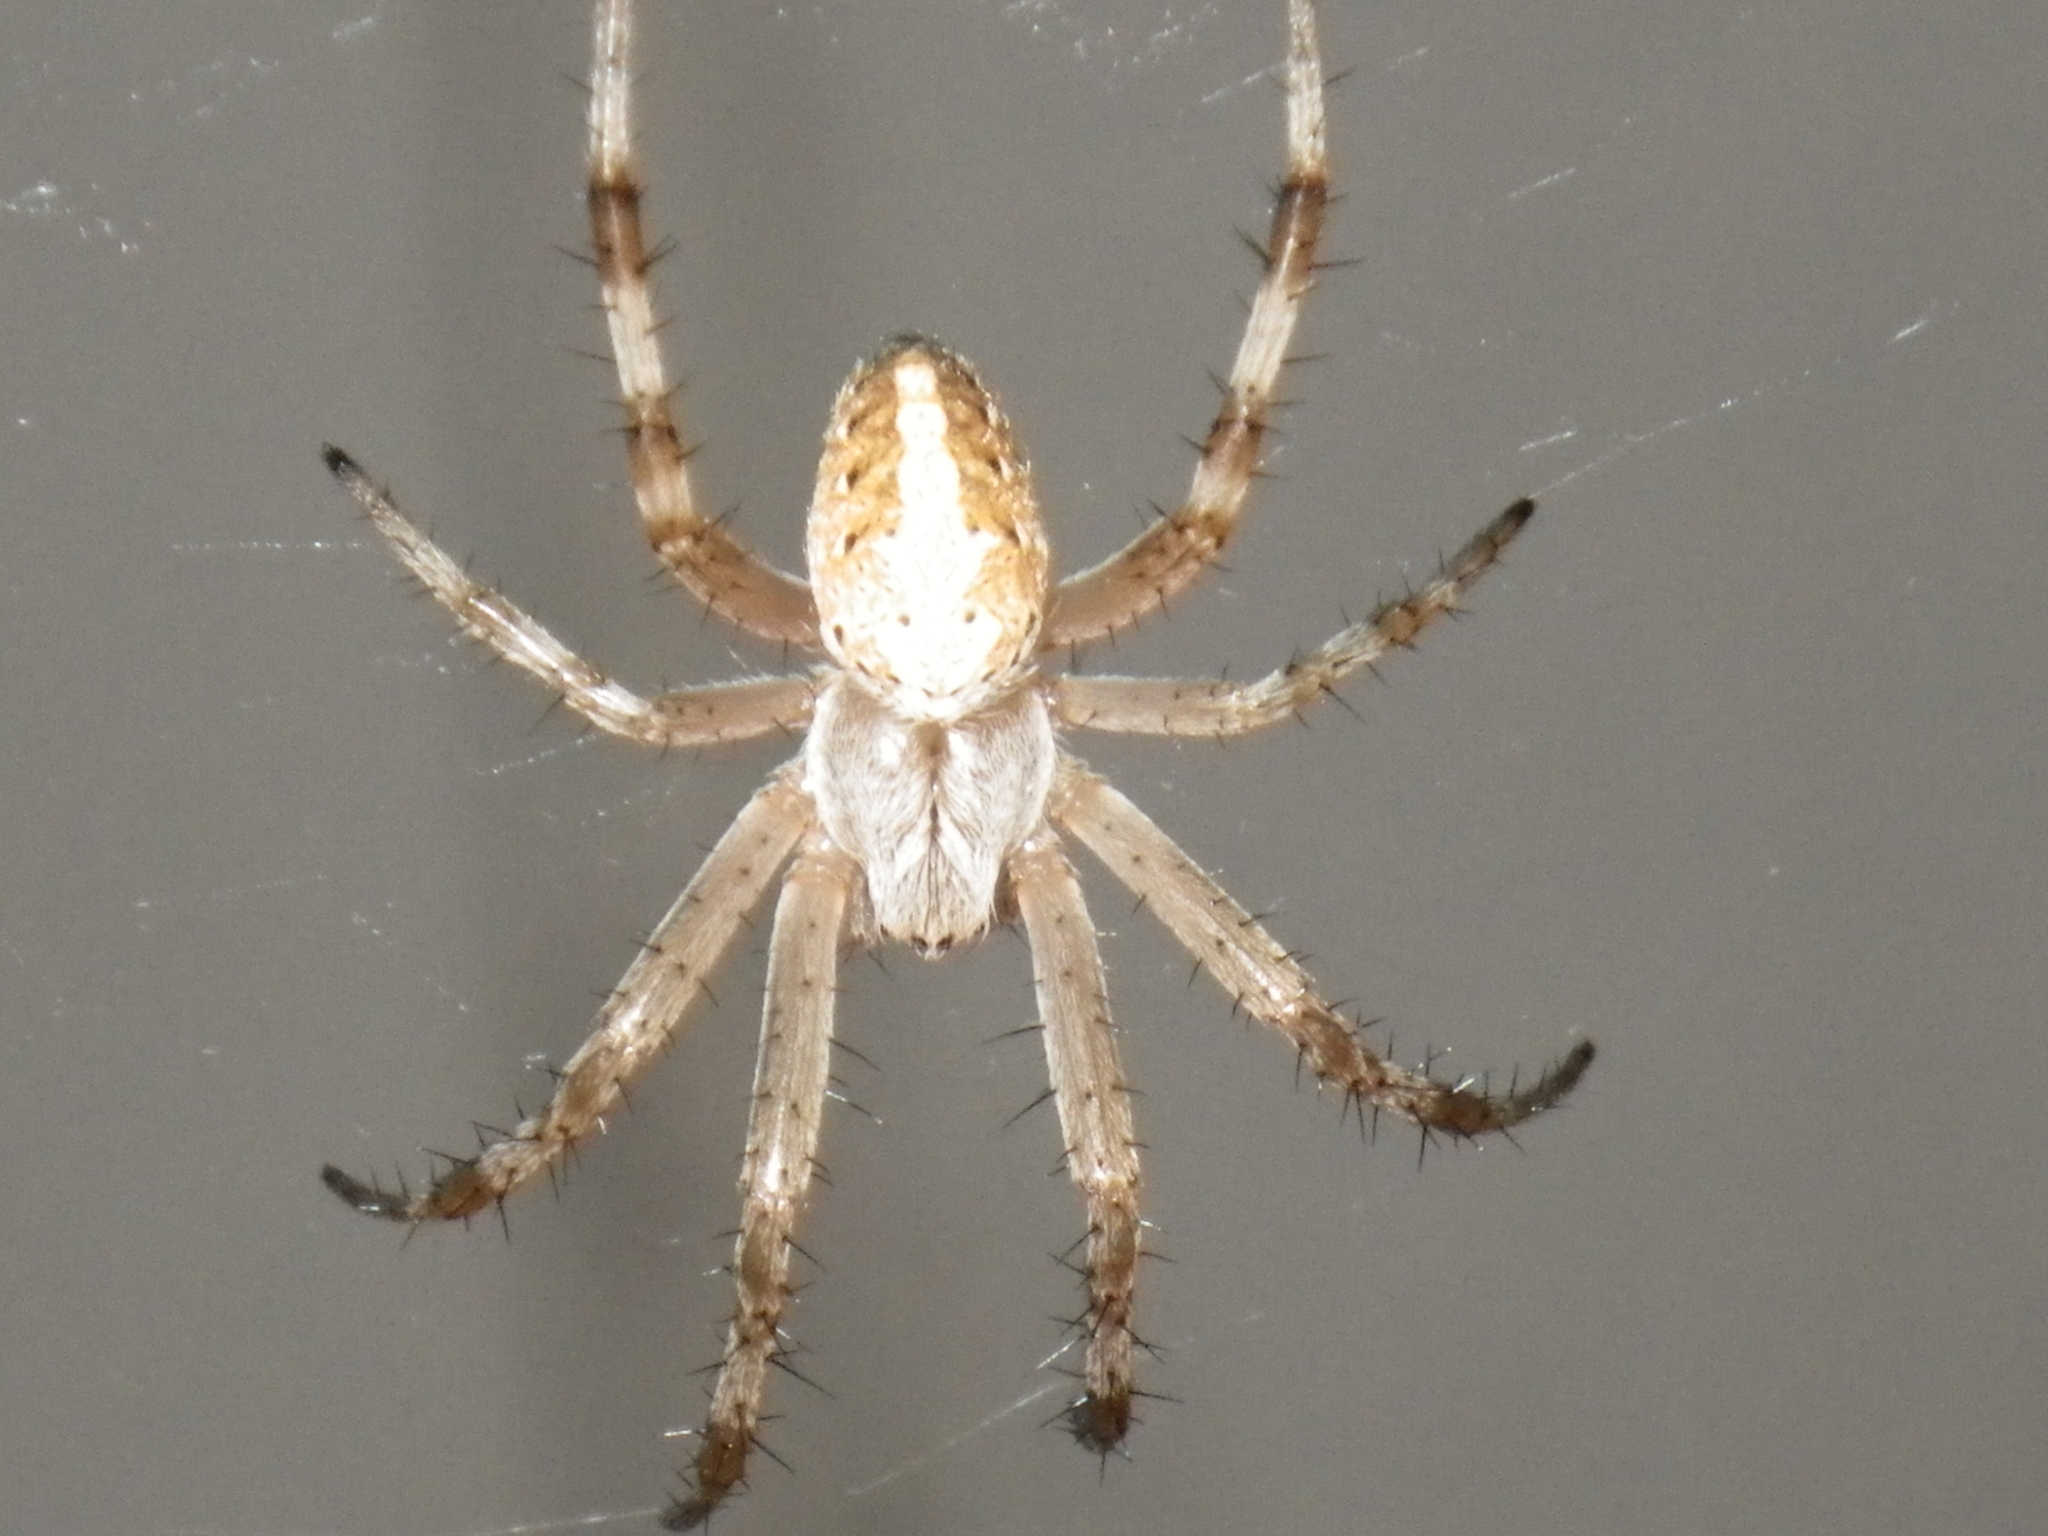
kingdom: Animalia
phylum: Arthropoda
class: Arachnida
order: Araneae
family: Araneidae
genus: Neoscona
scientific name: Neoscona oaxacensis
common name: Orb weavers
